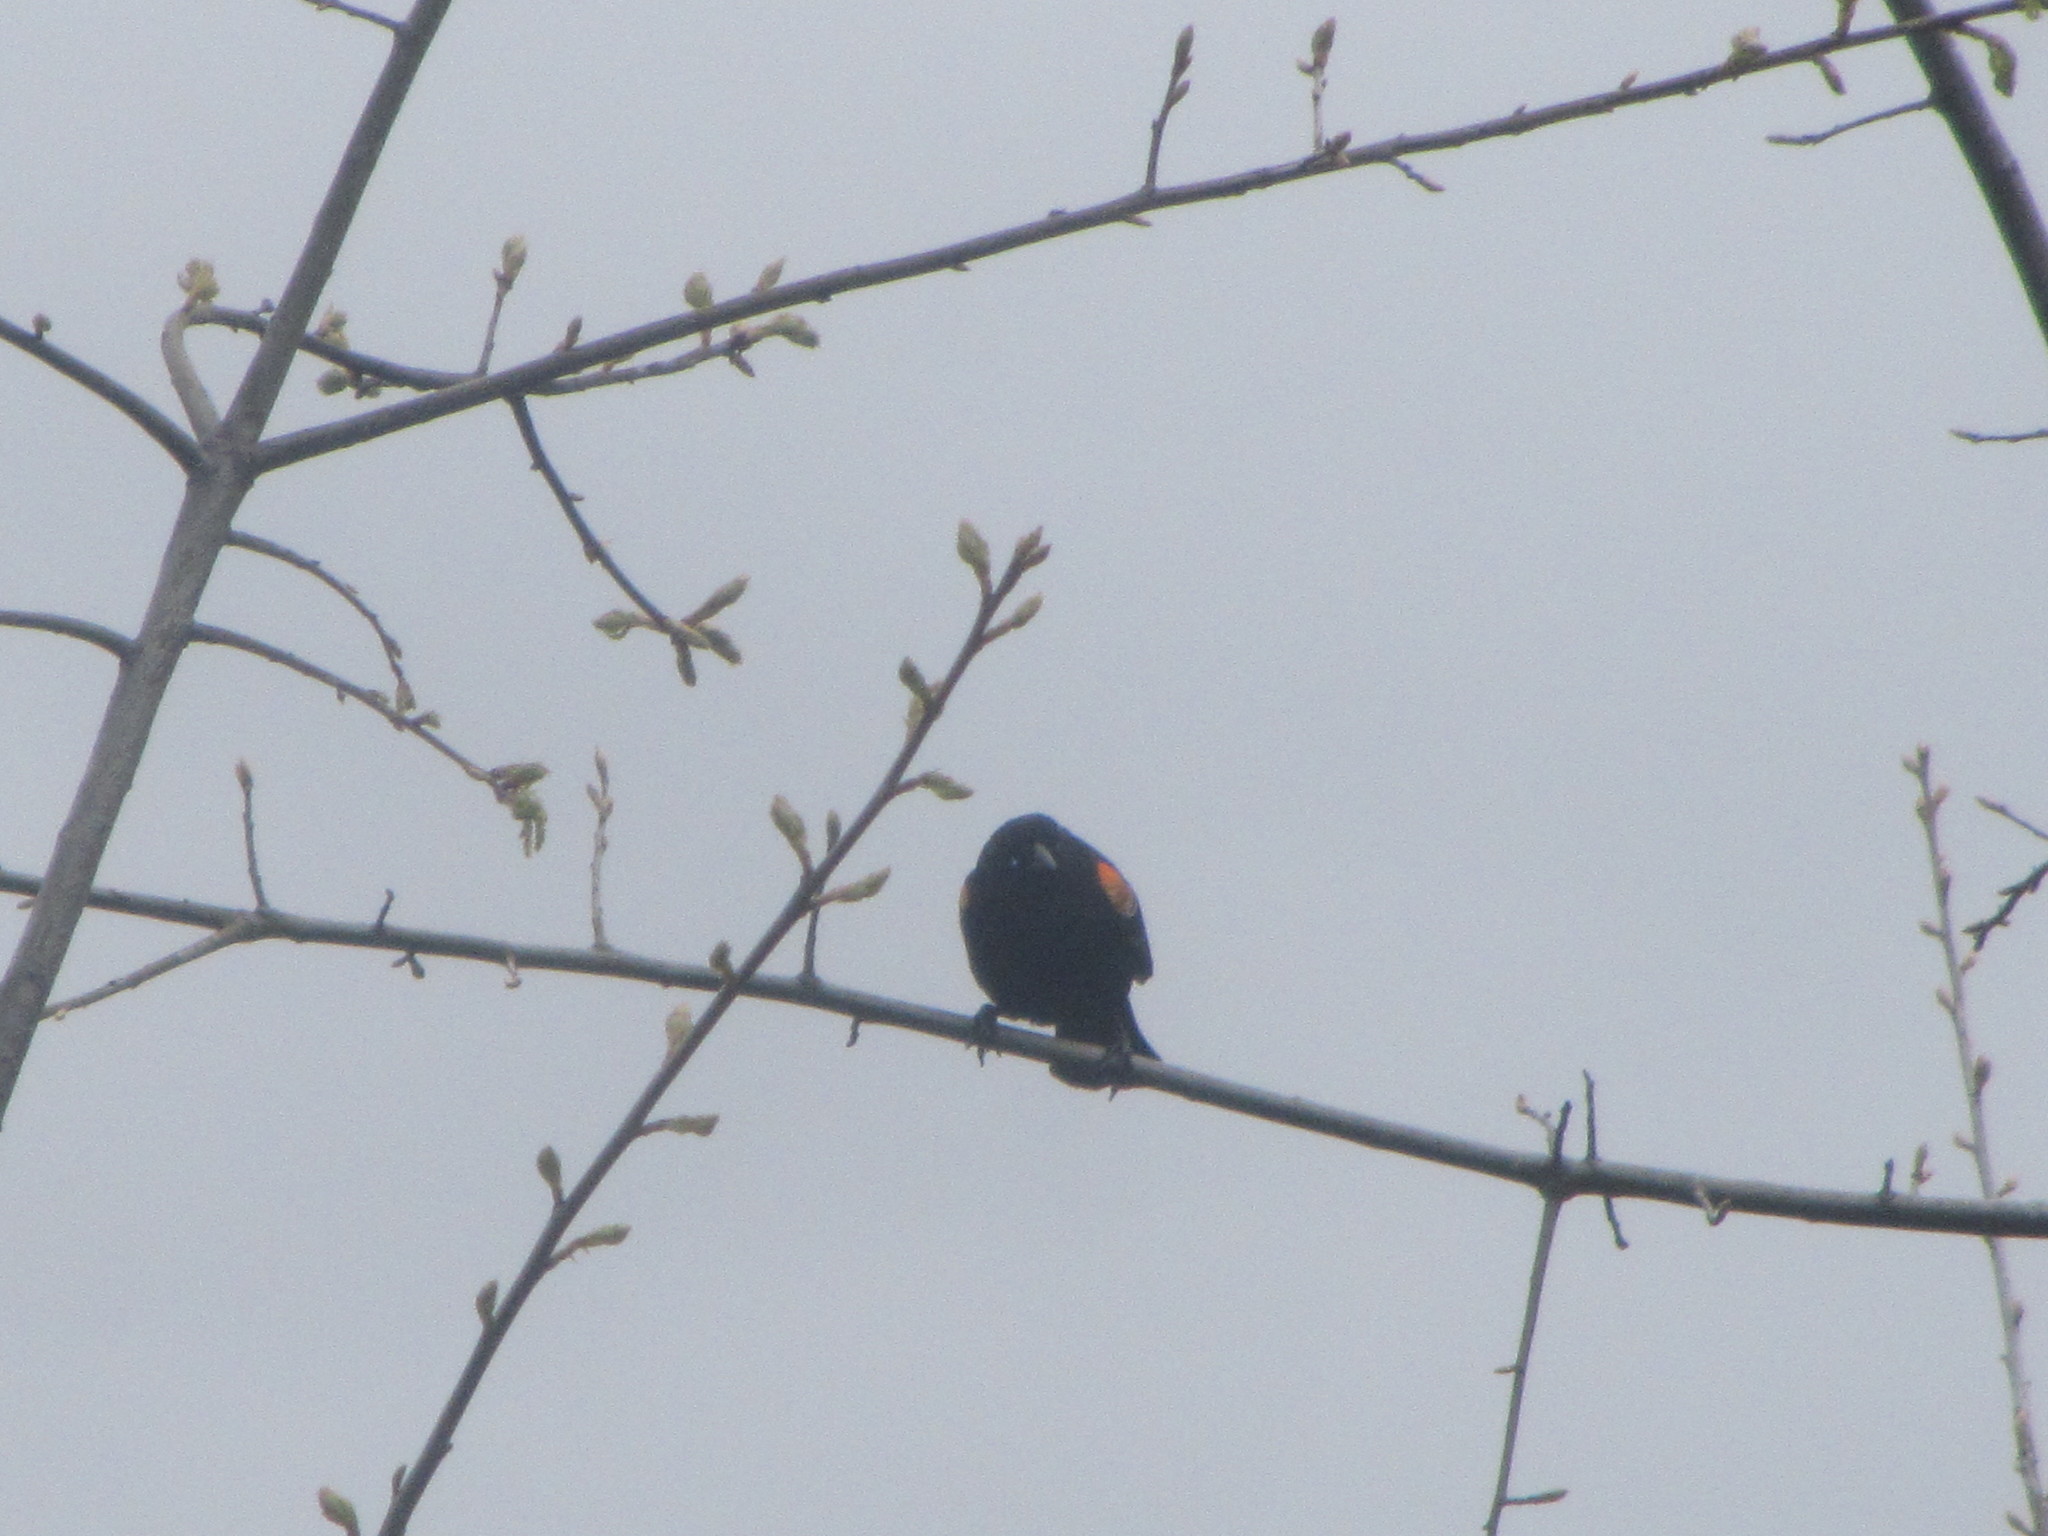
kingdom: Animalia
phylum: Chordata
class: Aves
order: Passeriformes
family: Icteridae
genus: Agelaius
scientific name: Agelaius phoeniceus
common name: Red-winged blackbird
